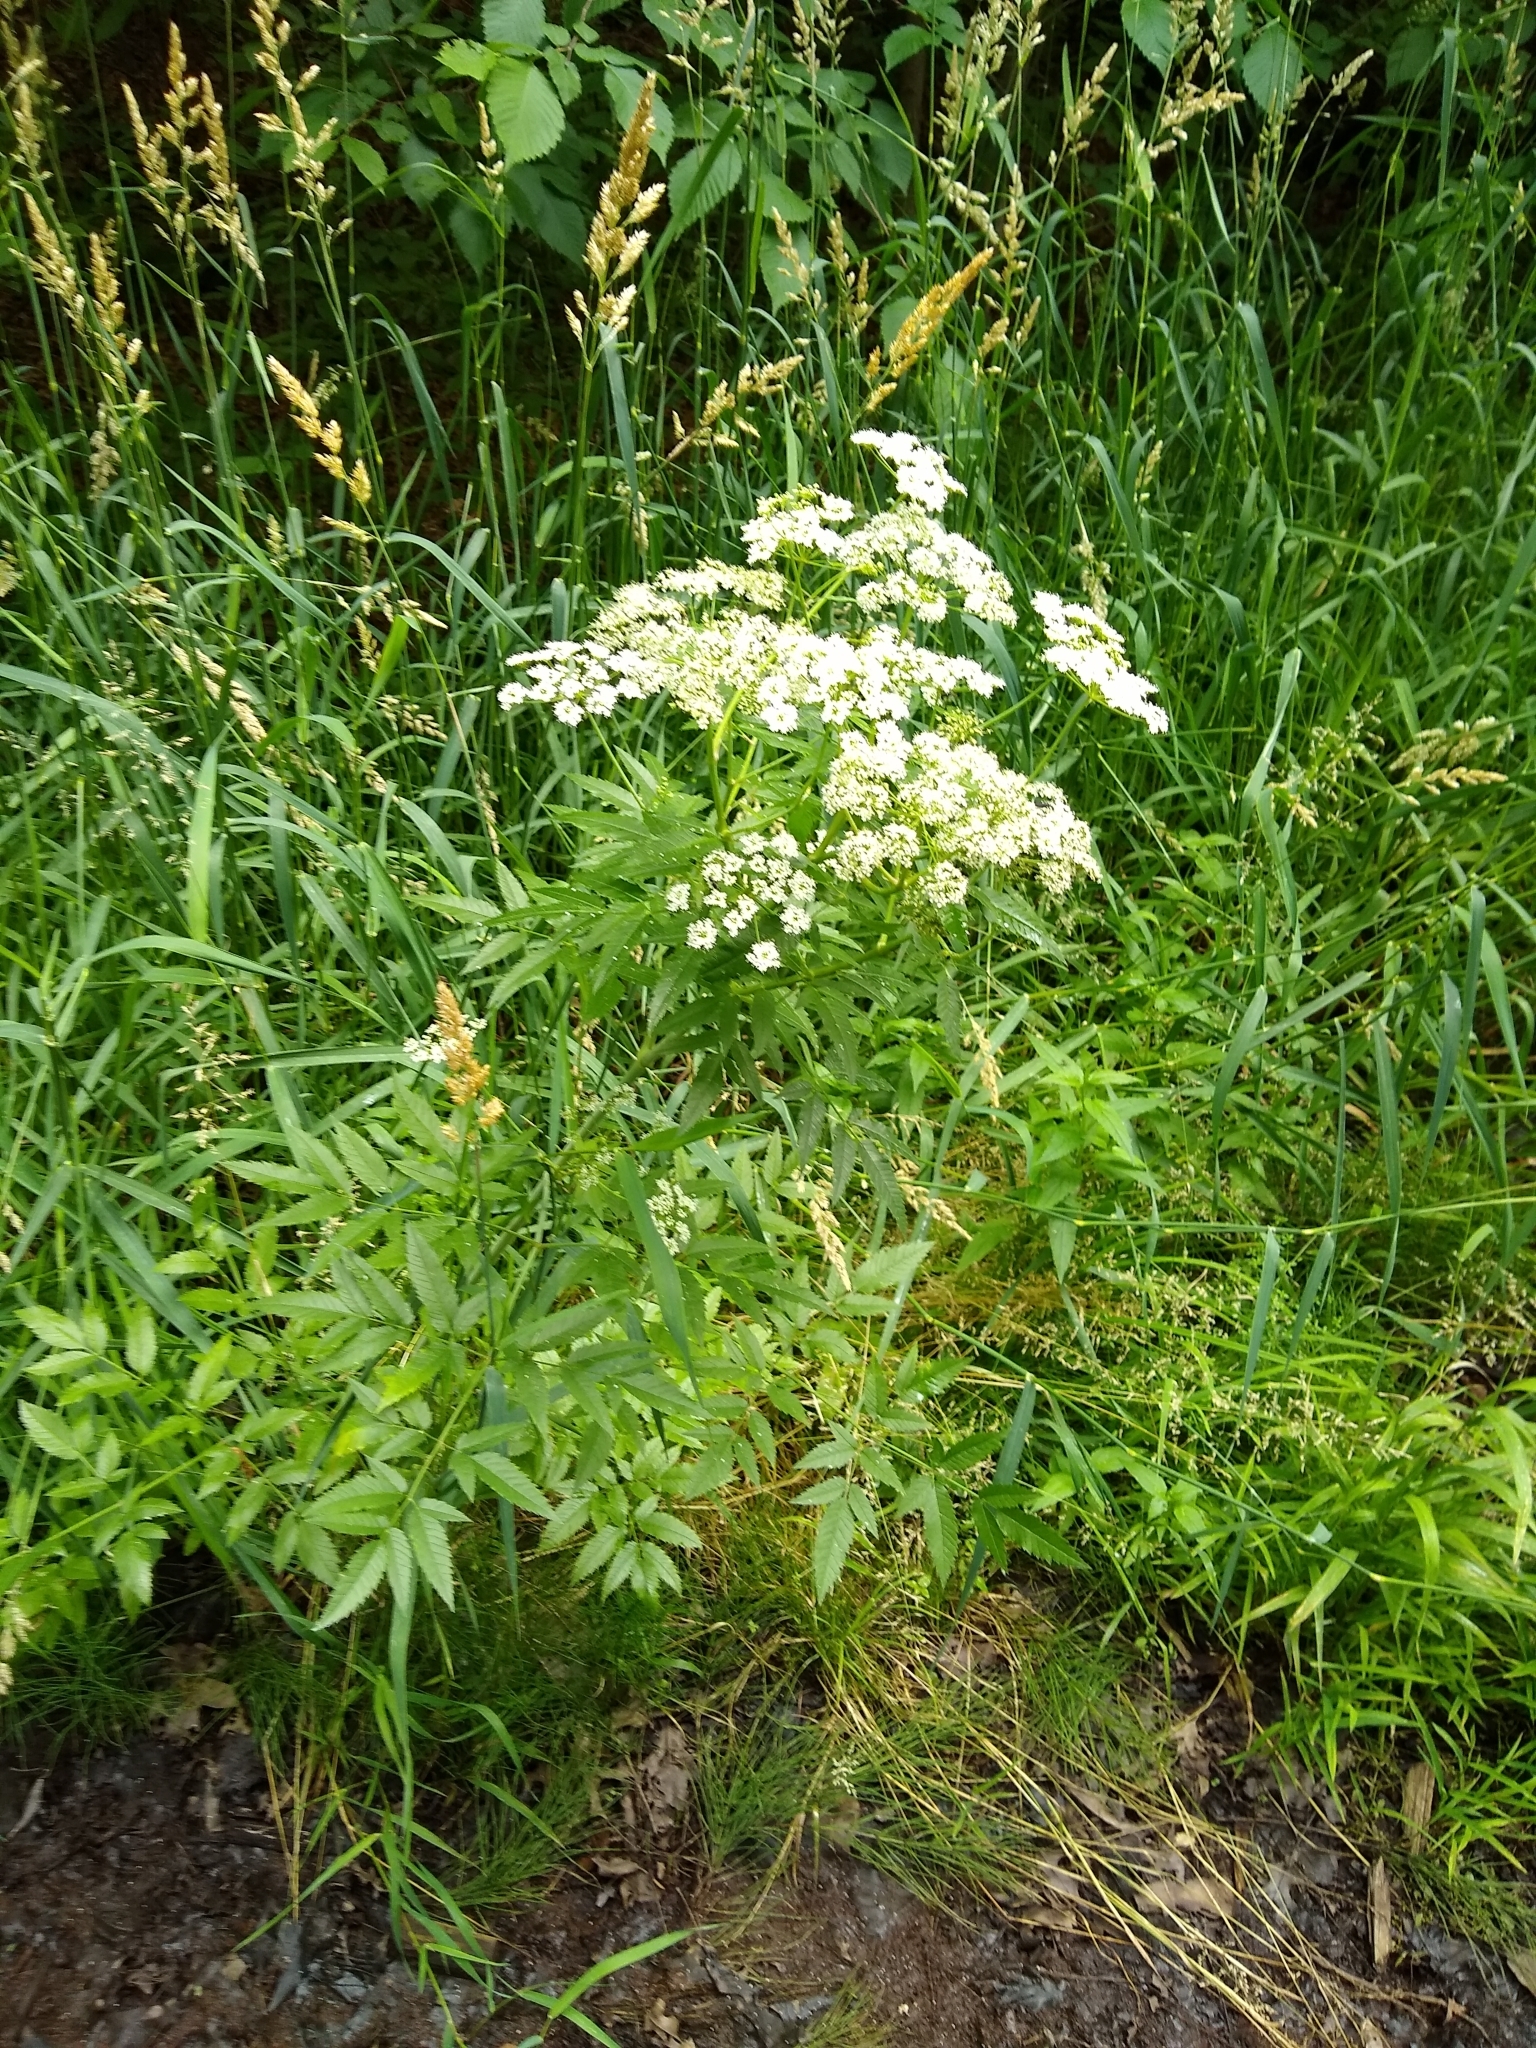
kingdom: Plantae
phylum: Tracheophyta
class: Magnoliopsida
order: Apiales
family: Apiaceae
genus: Cicuta
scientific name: Cicuta maculata
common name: Spotted cowbane
